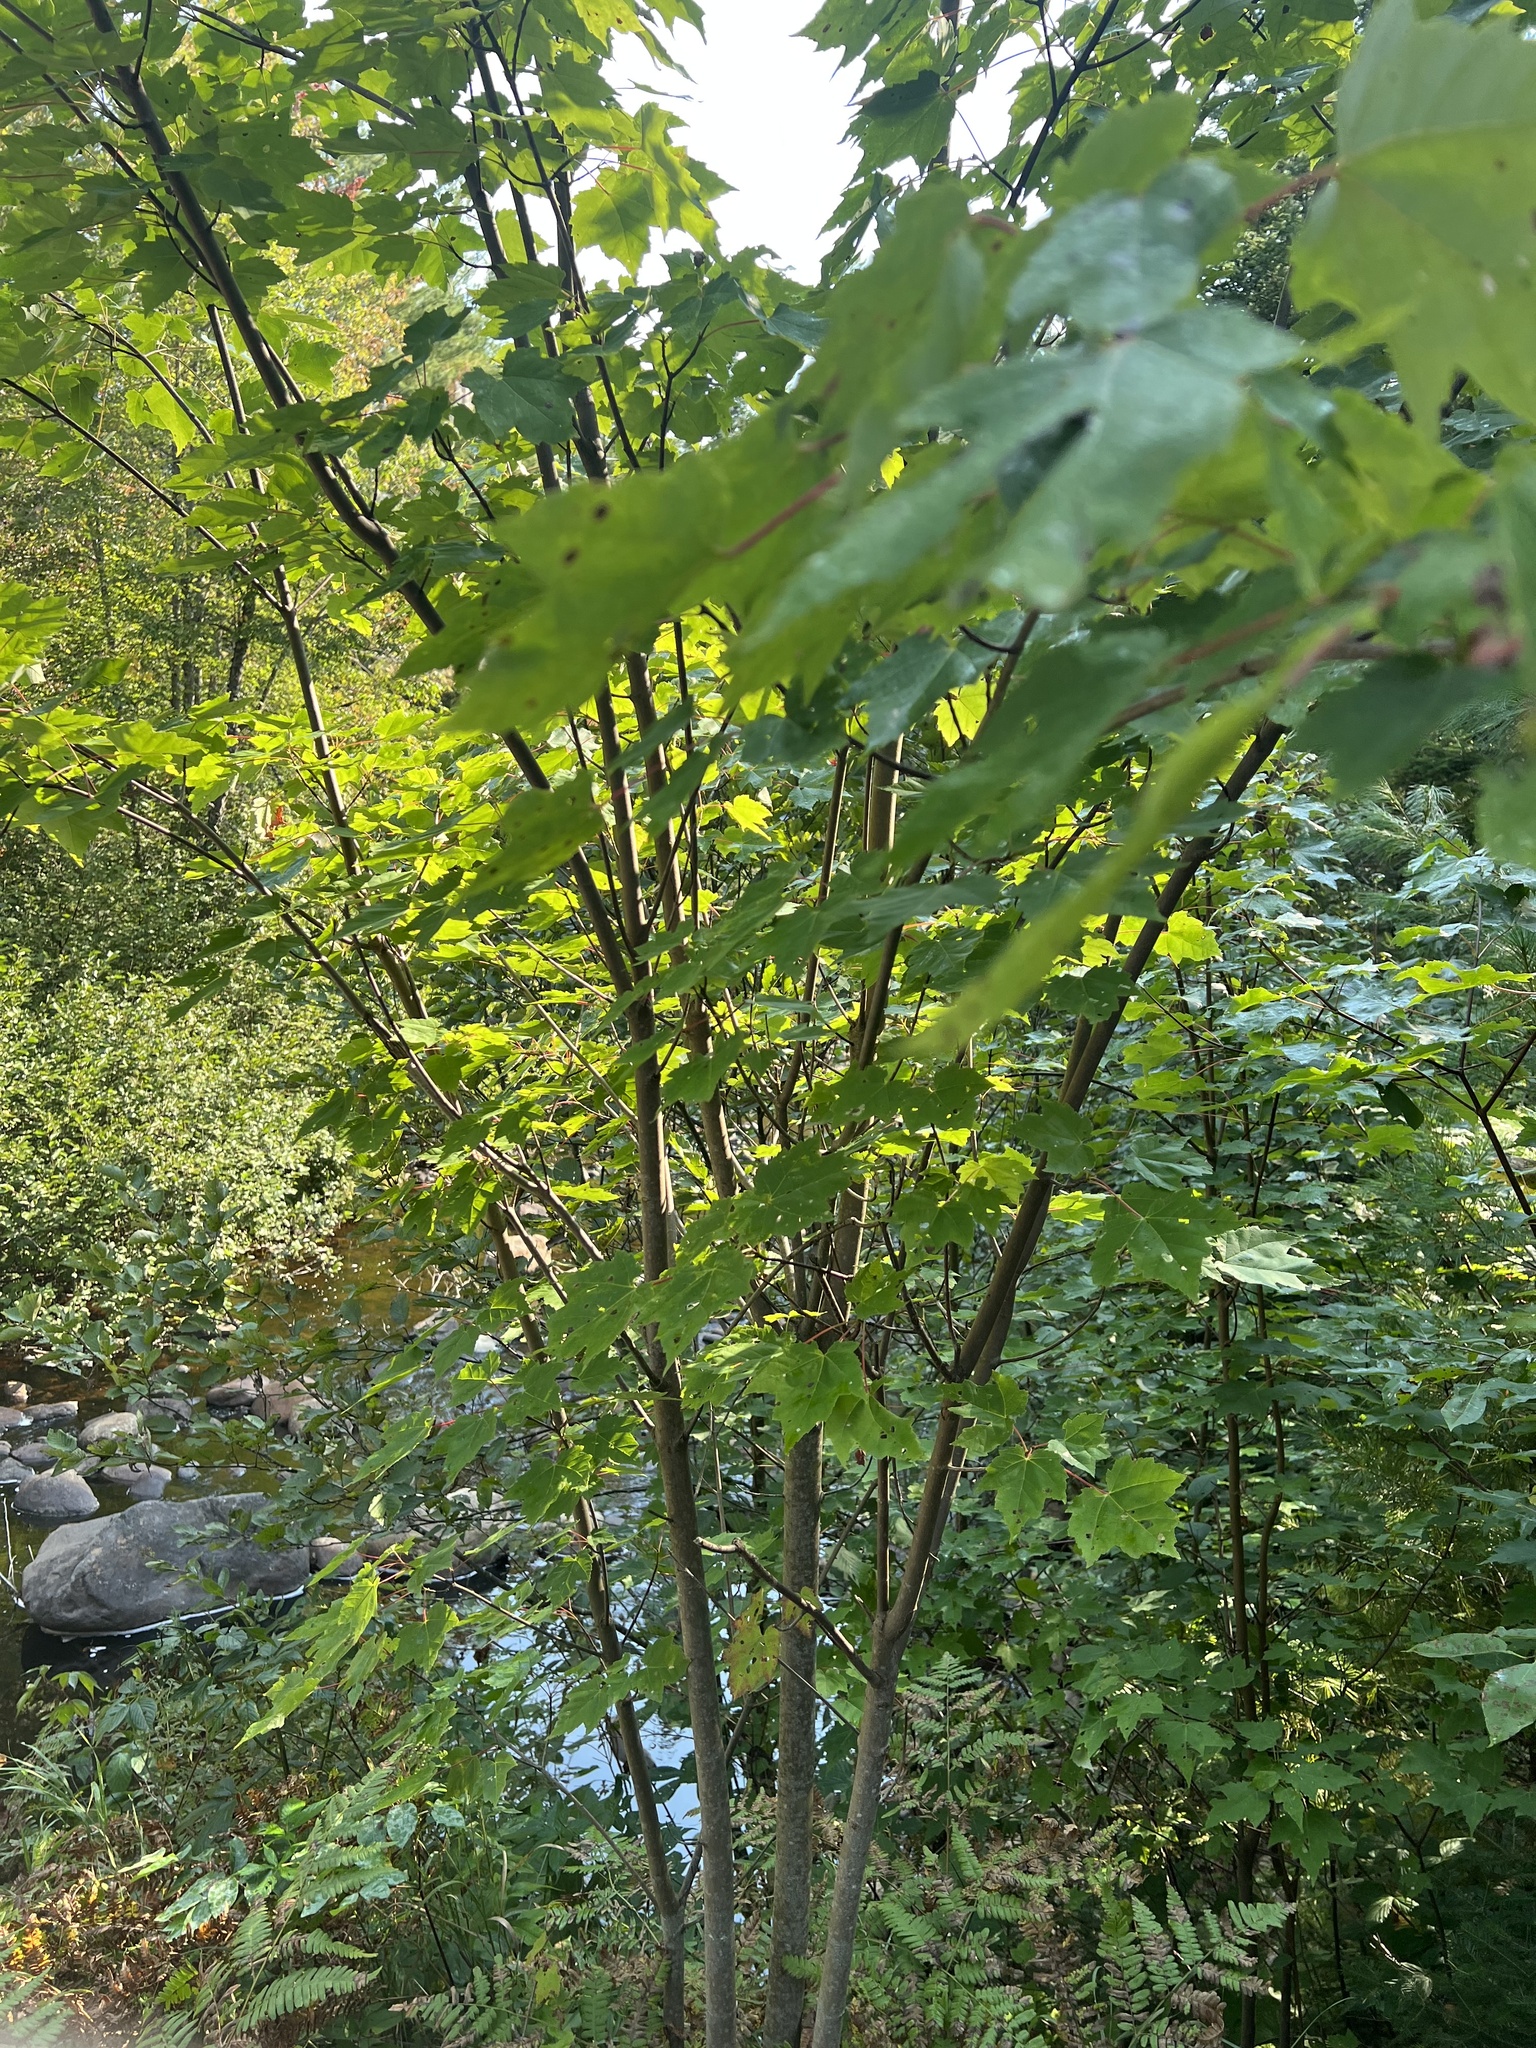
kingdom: Plantae
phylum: Tracheophyta
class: Magnoliopsida
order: Sapindales
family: Sapindaceae
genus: Acer
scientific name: Acer rubrum
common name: Red maple
